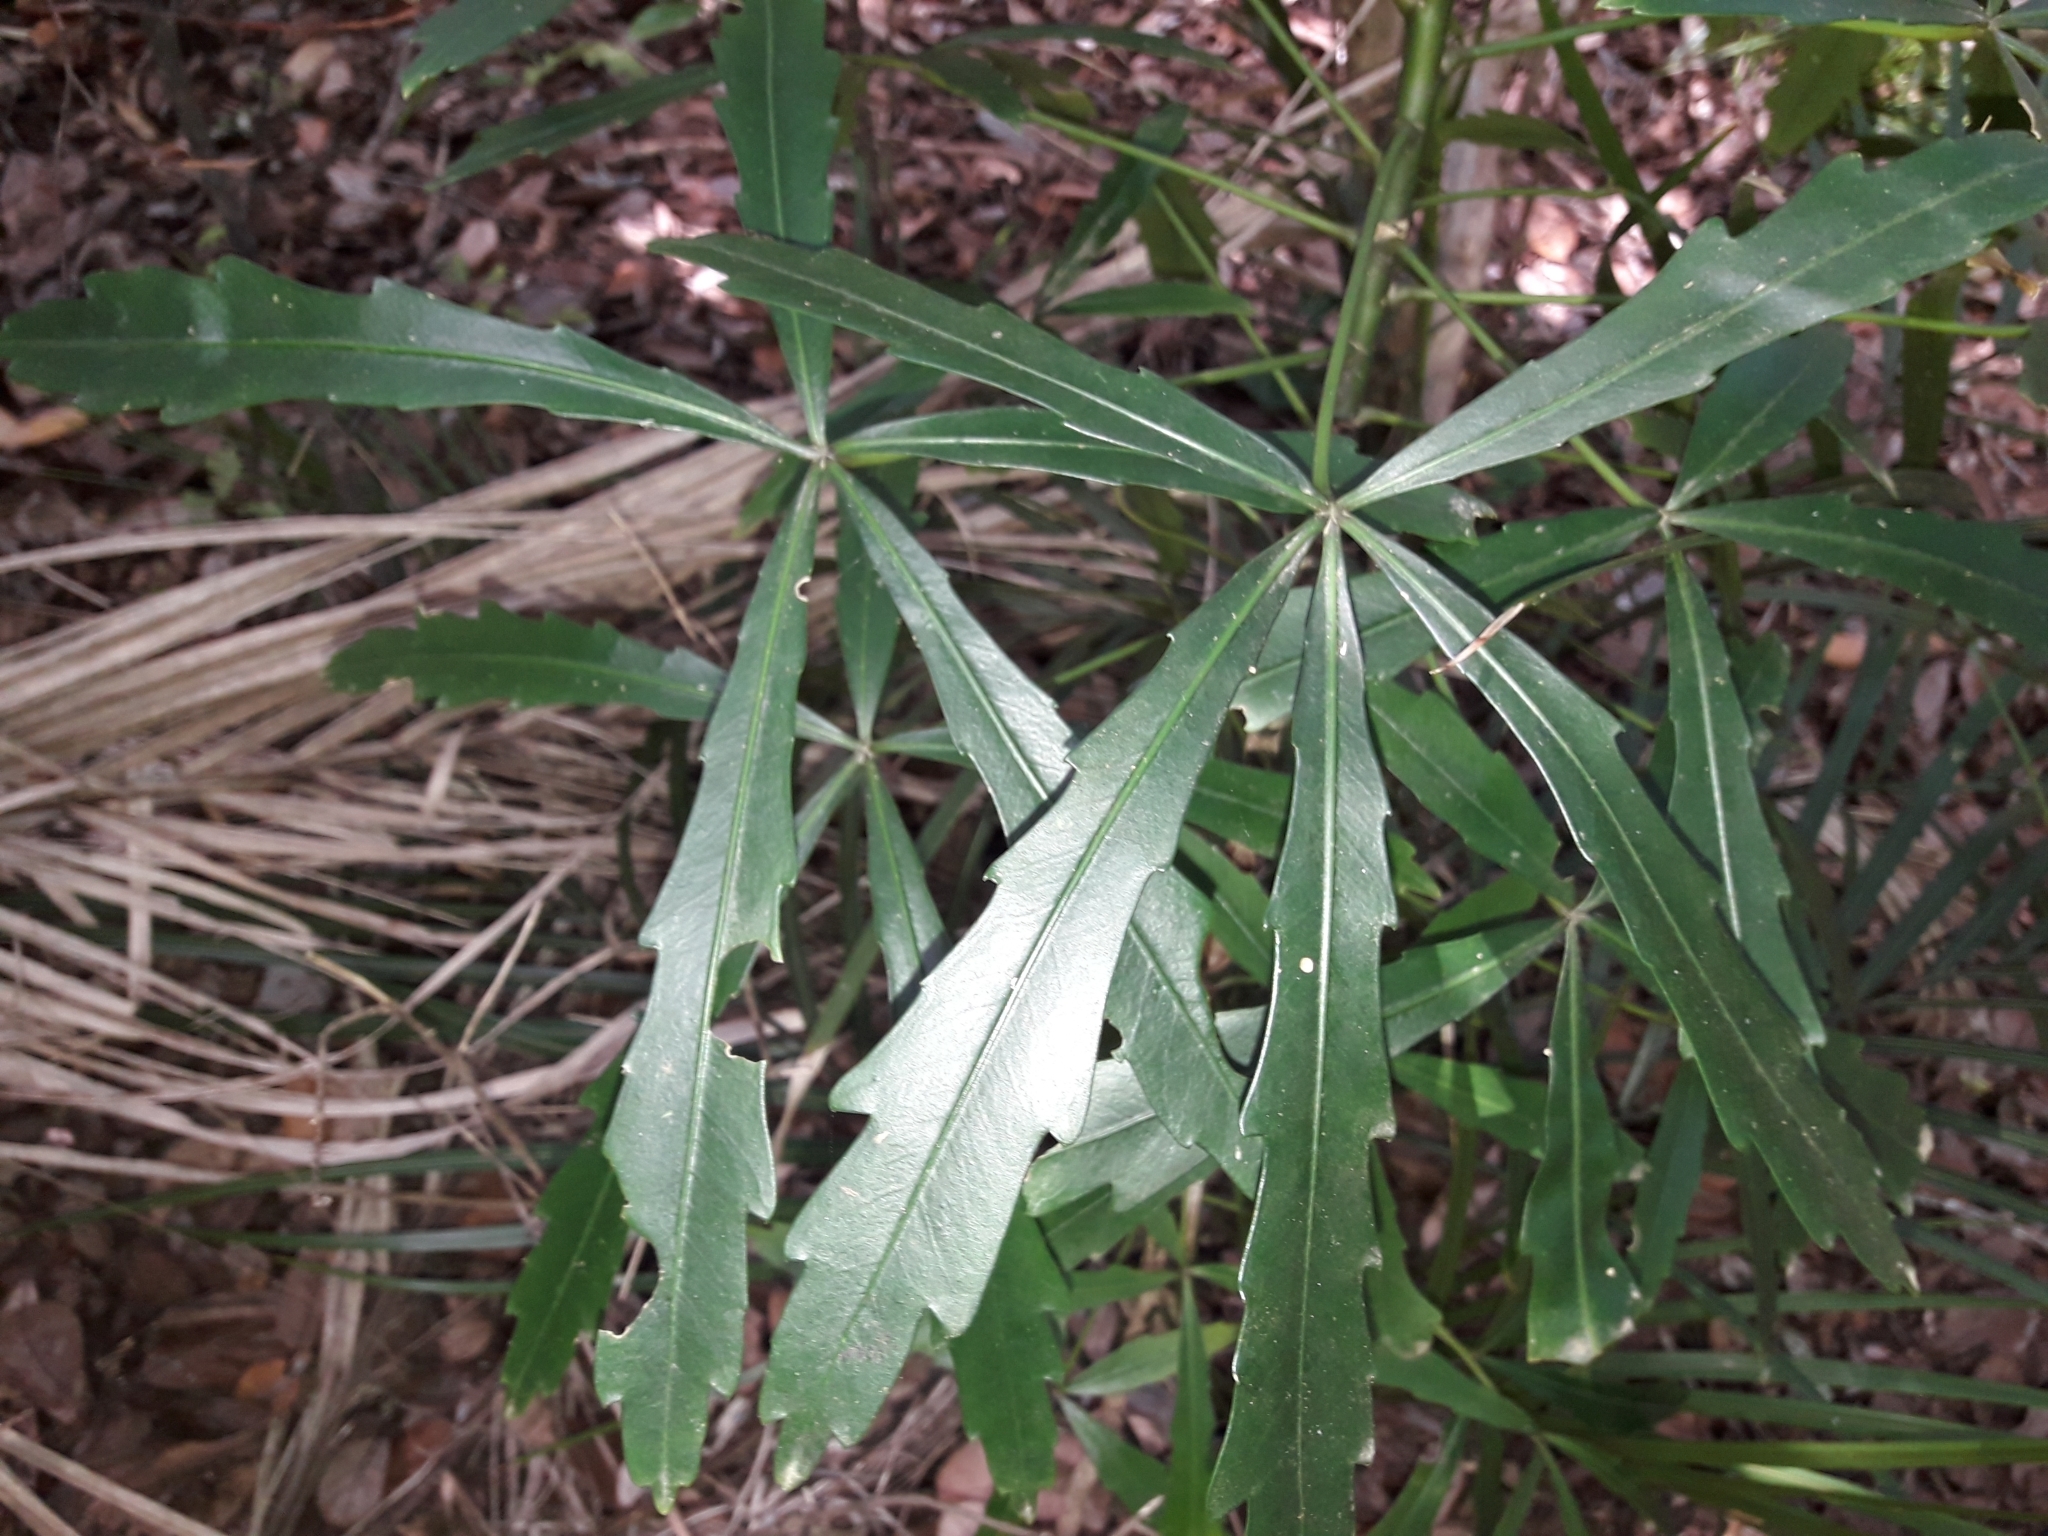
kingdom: Plantae
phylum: Tracheophyta
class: Magnoliopsida
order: Apiales
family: Araliaceae
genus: Pseudopanax
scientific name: Pseudopanax
